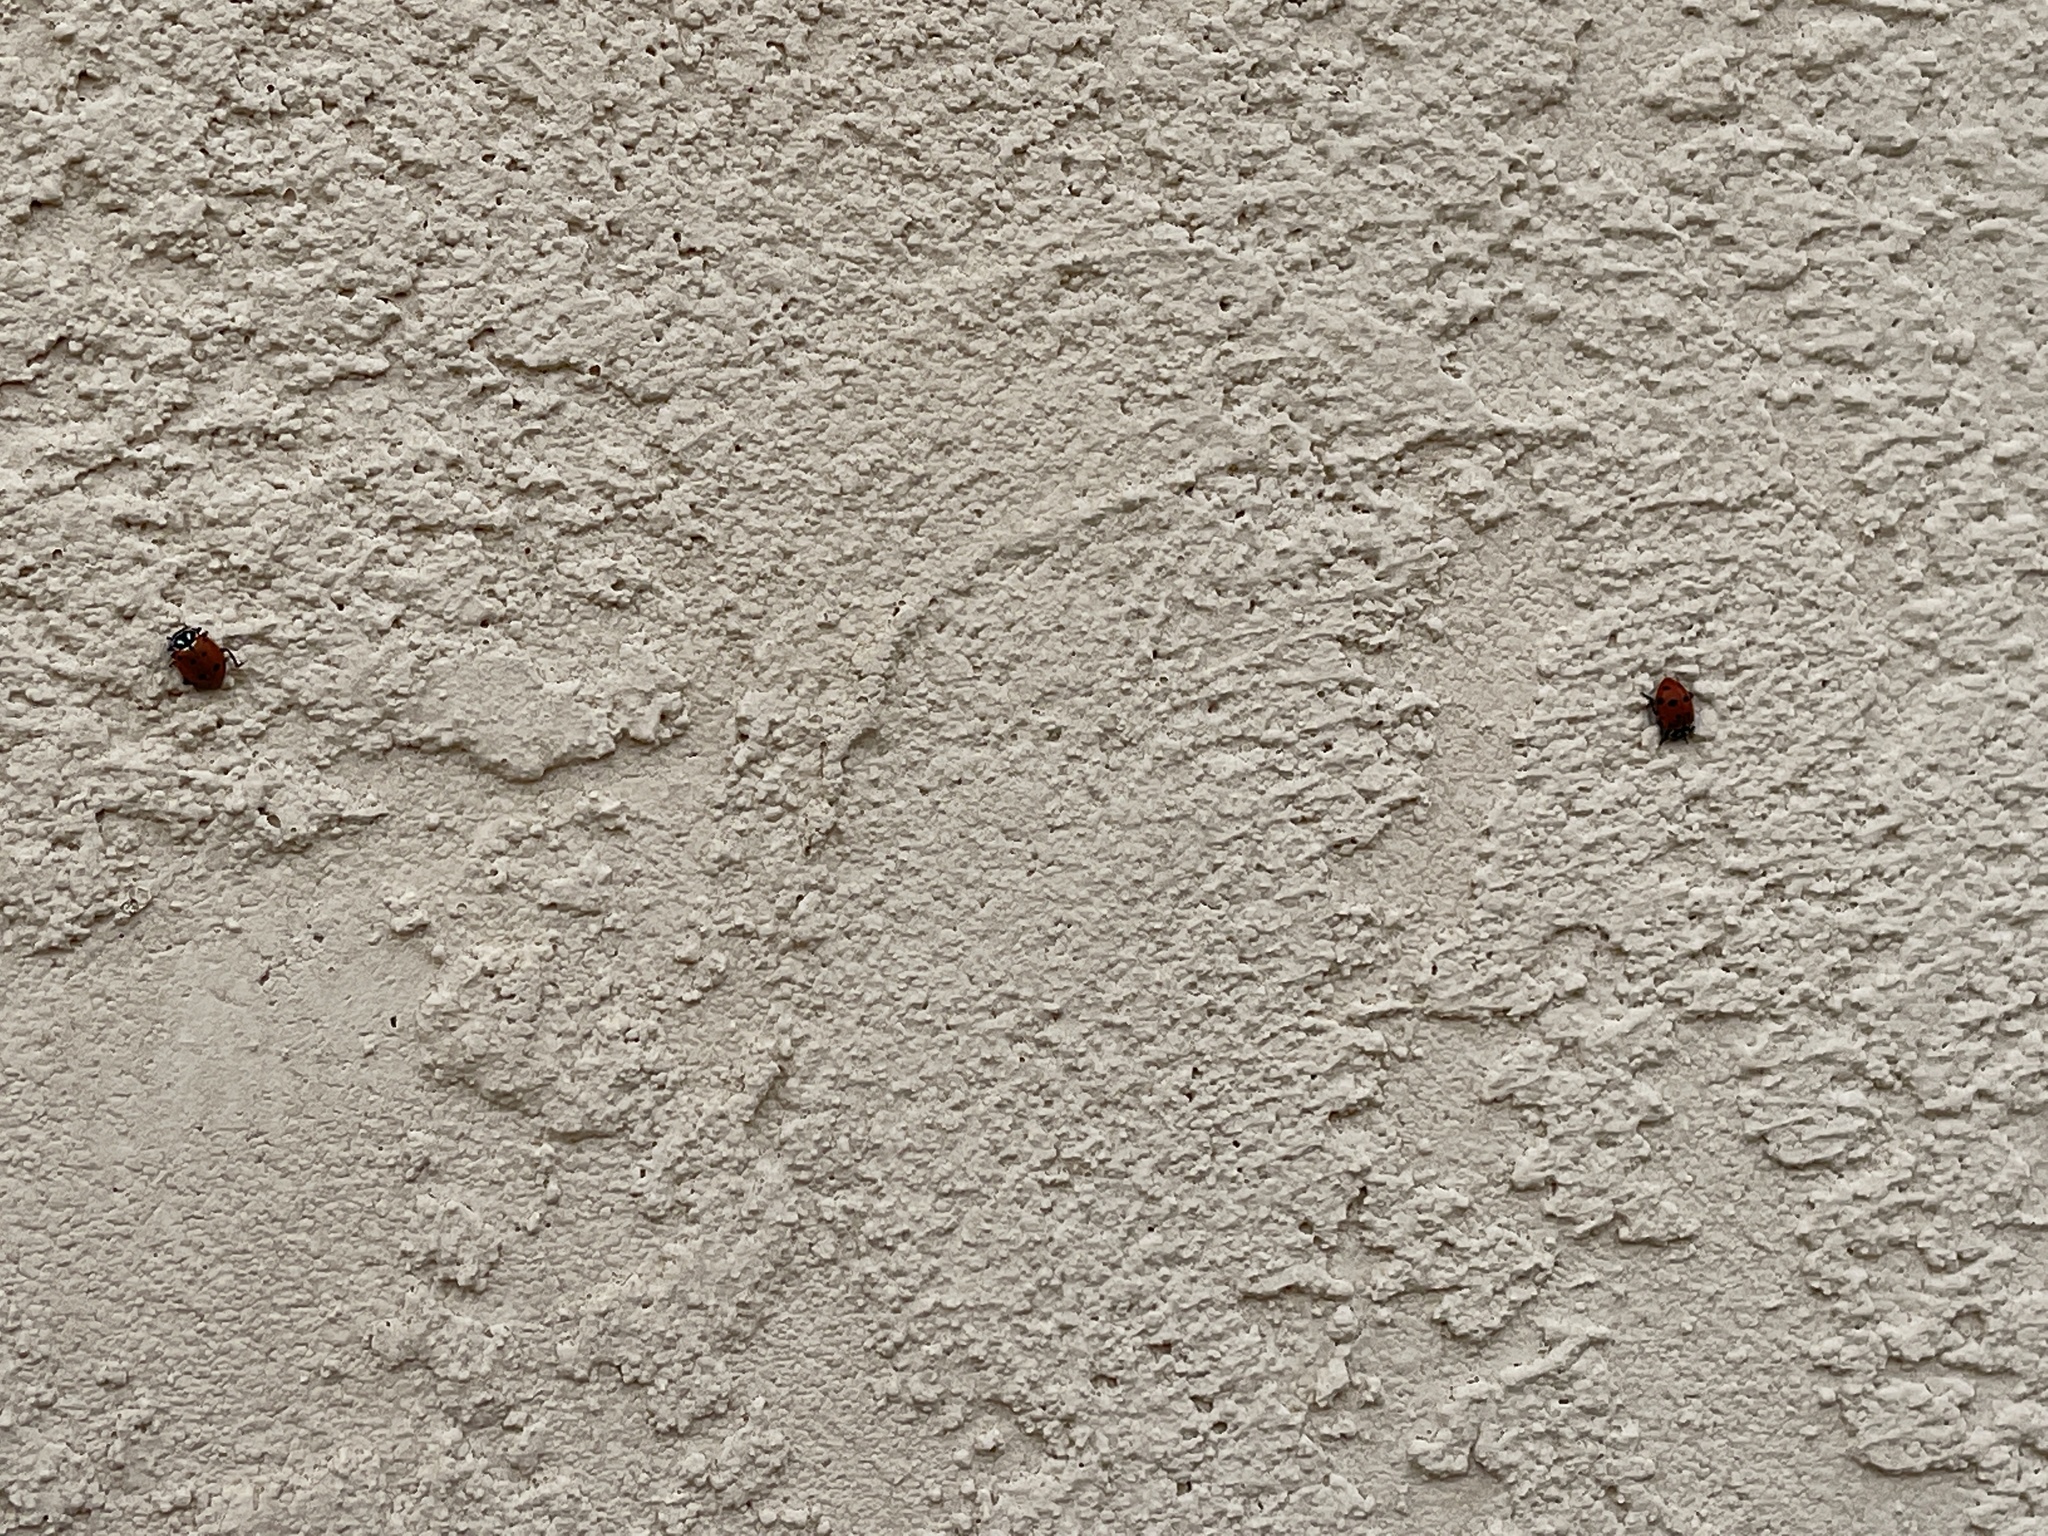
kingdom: Animalia
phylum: Arthropoda
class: Insecta
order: Coleoptera
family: Coccinellidae
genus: Hippodamia
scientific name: Hippodamia convergens
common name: Convergent lady beetle
